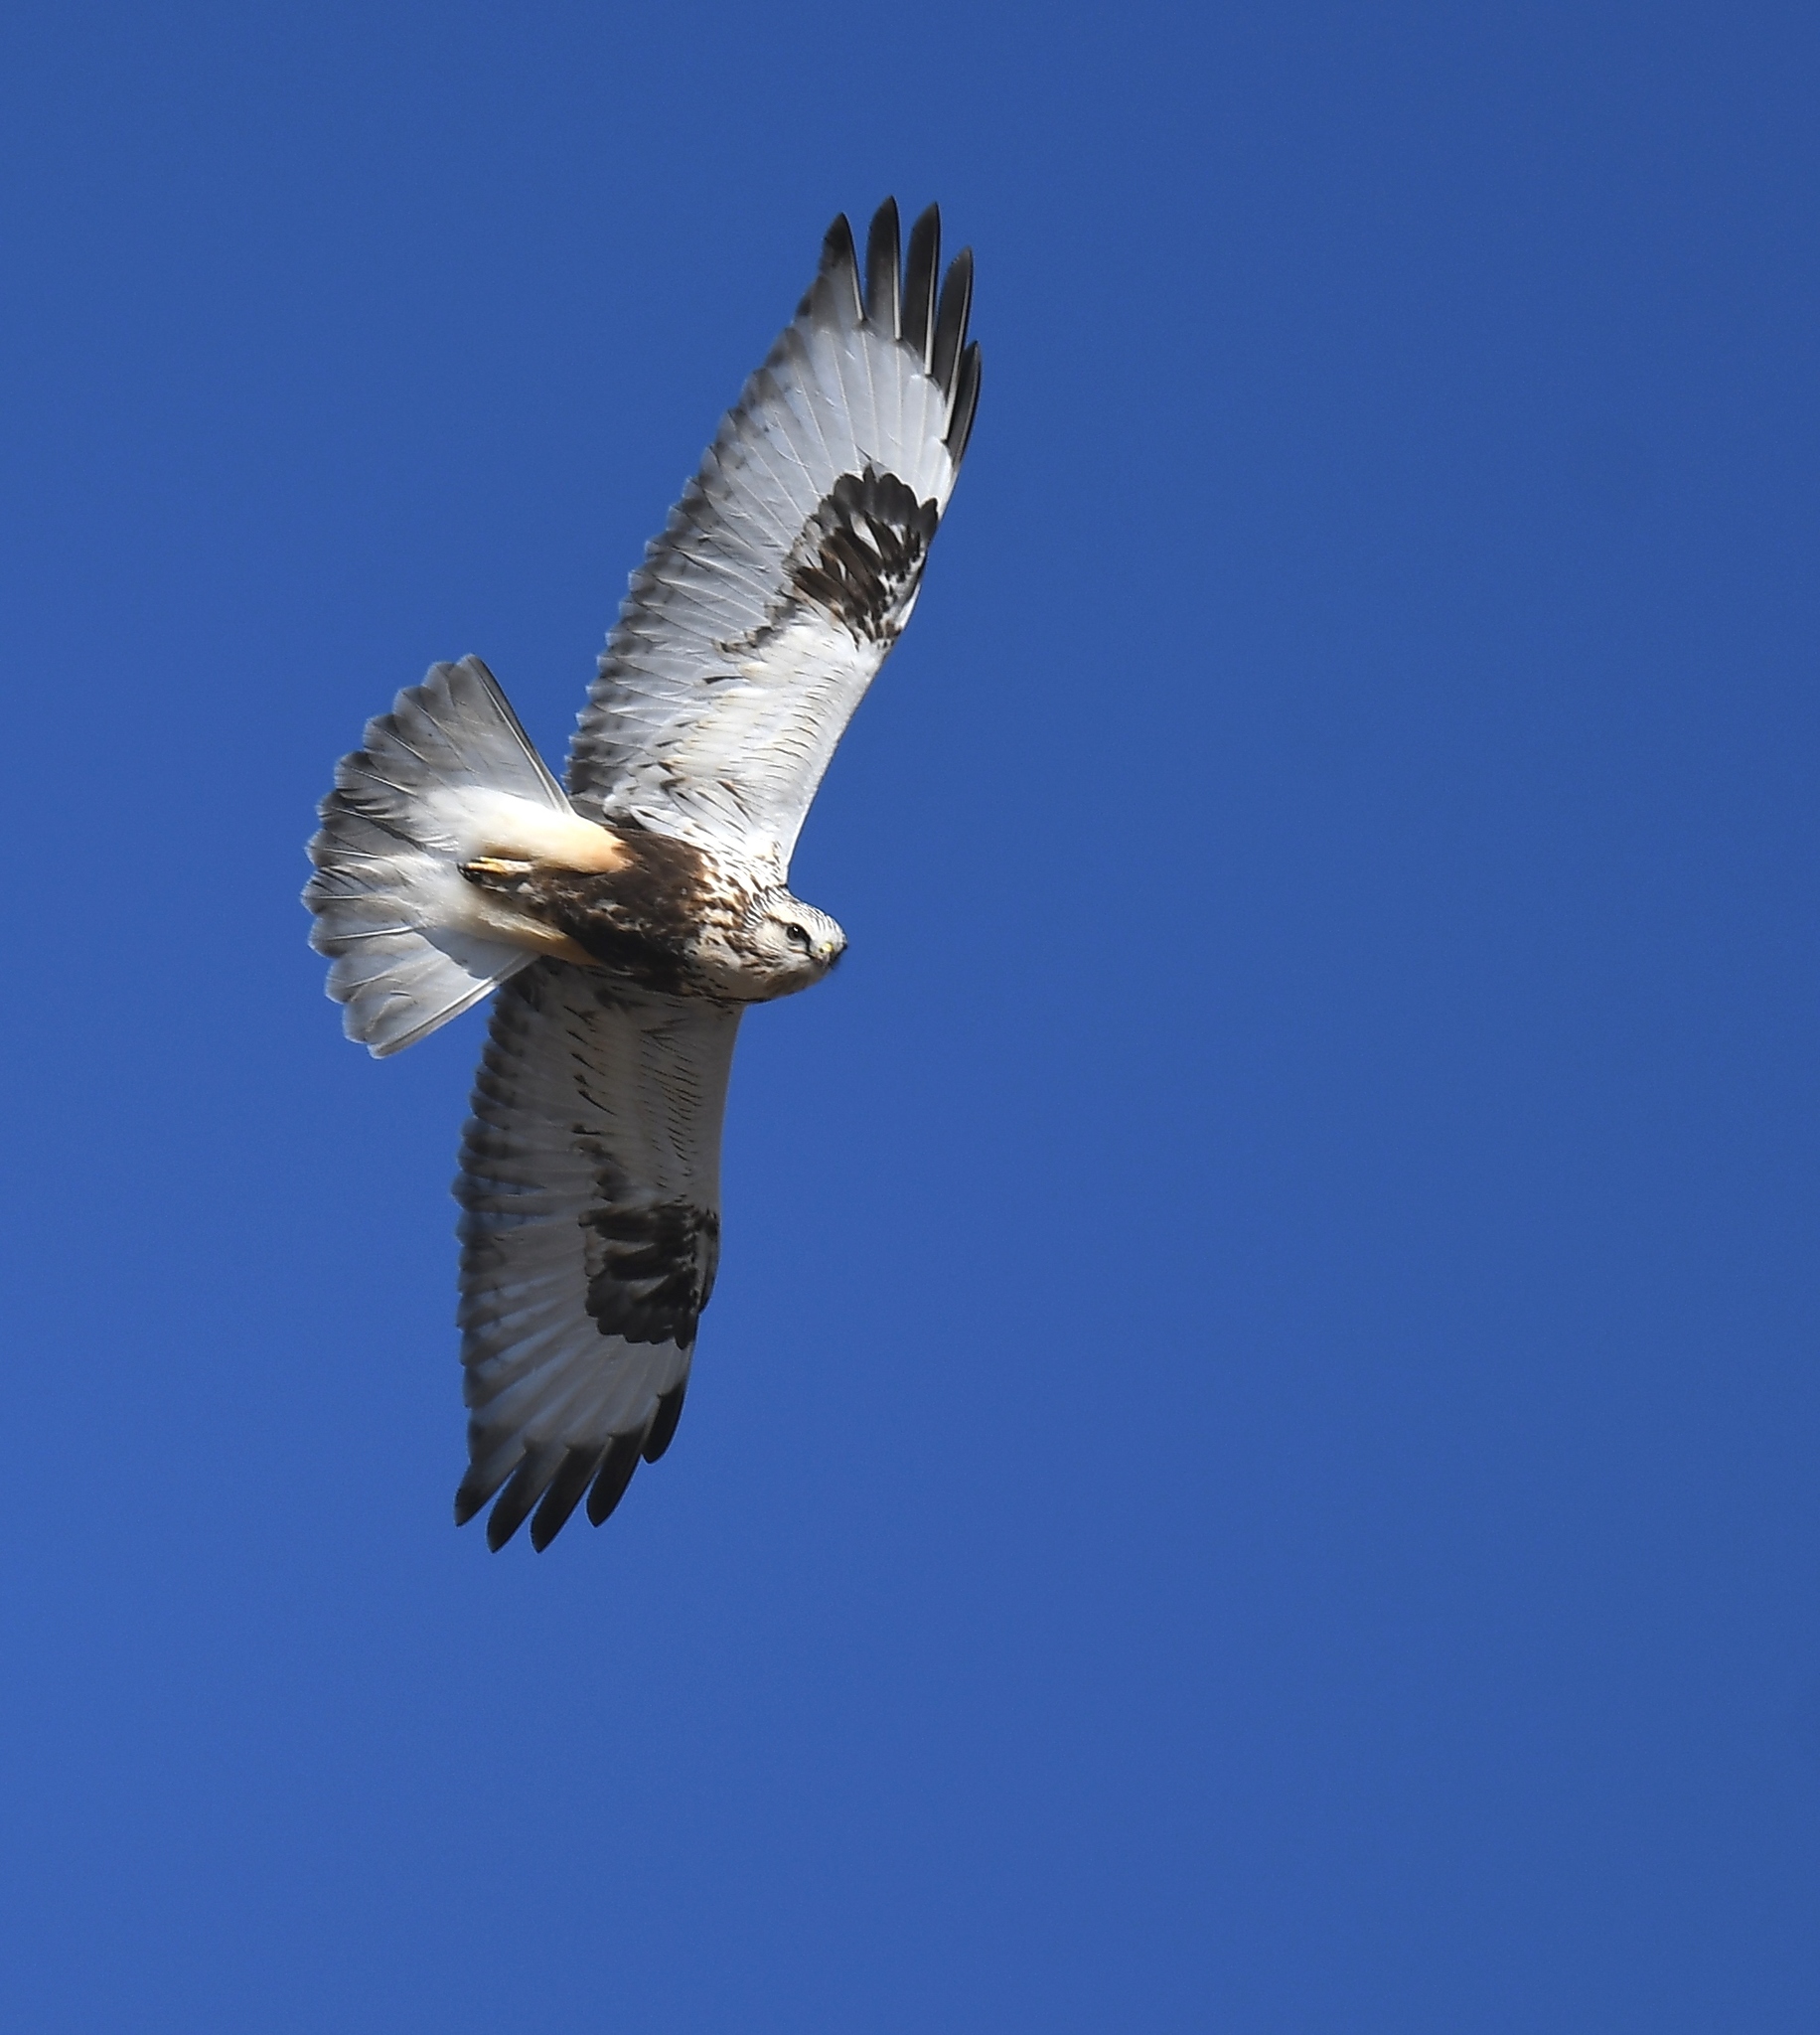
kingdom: Animalia
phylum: Chordata
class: Aves
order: Accipitriformes
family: Accipitridae
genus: Buteo
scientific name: Buteo lagopus
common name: Rough-legged buzzard
